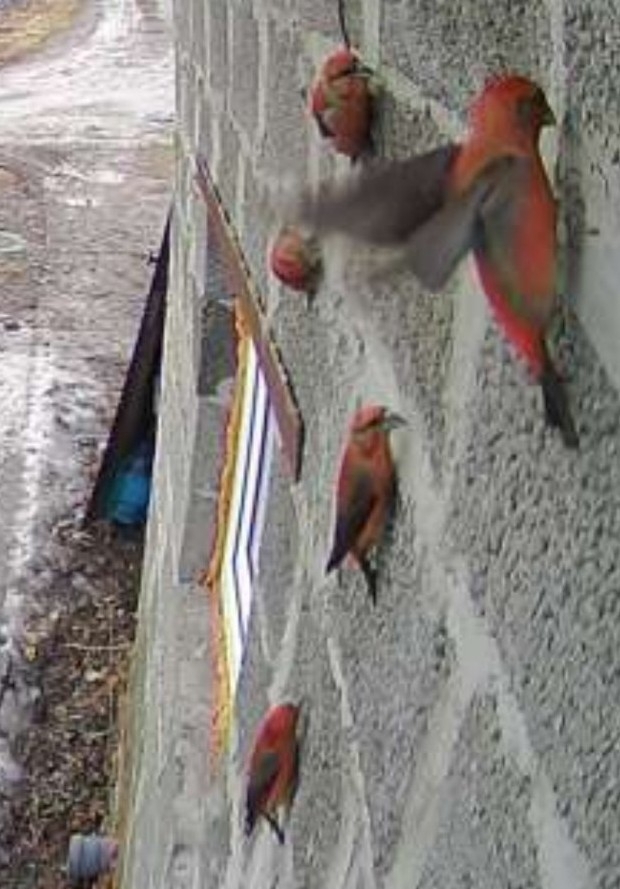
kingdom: Animalia
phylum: Chordata
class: Aves
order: Passeriformes
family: Fringillidae
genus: Loxia
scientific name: Loxia curvirostra
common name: Red crossbill
